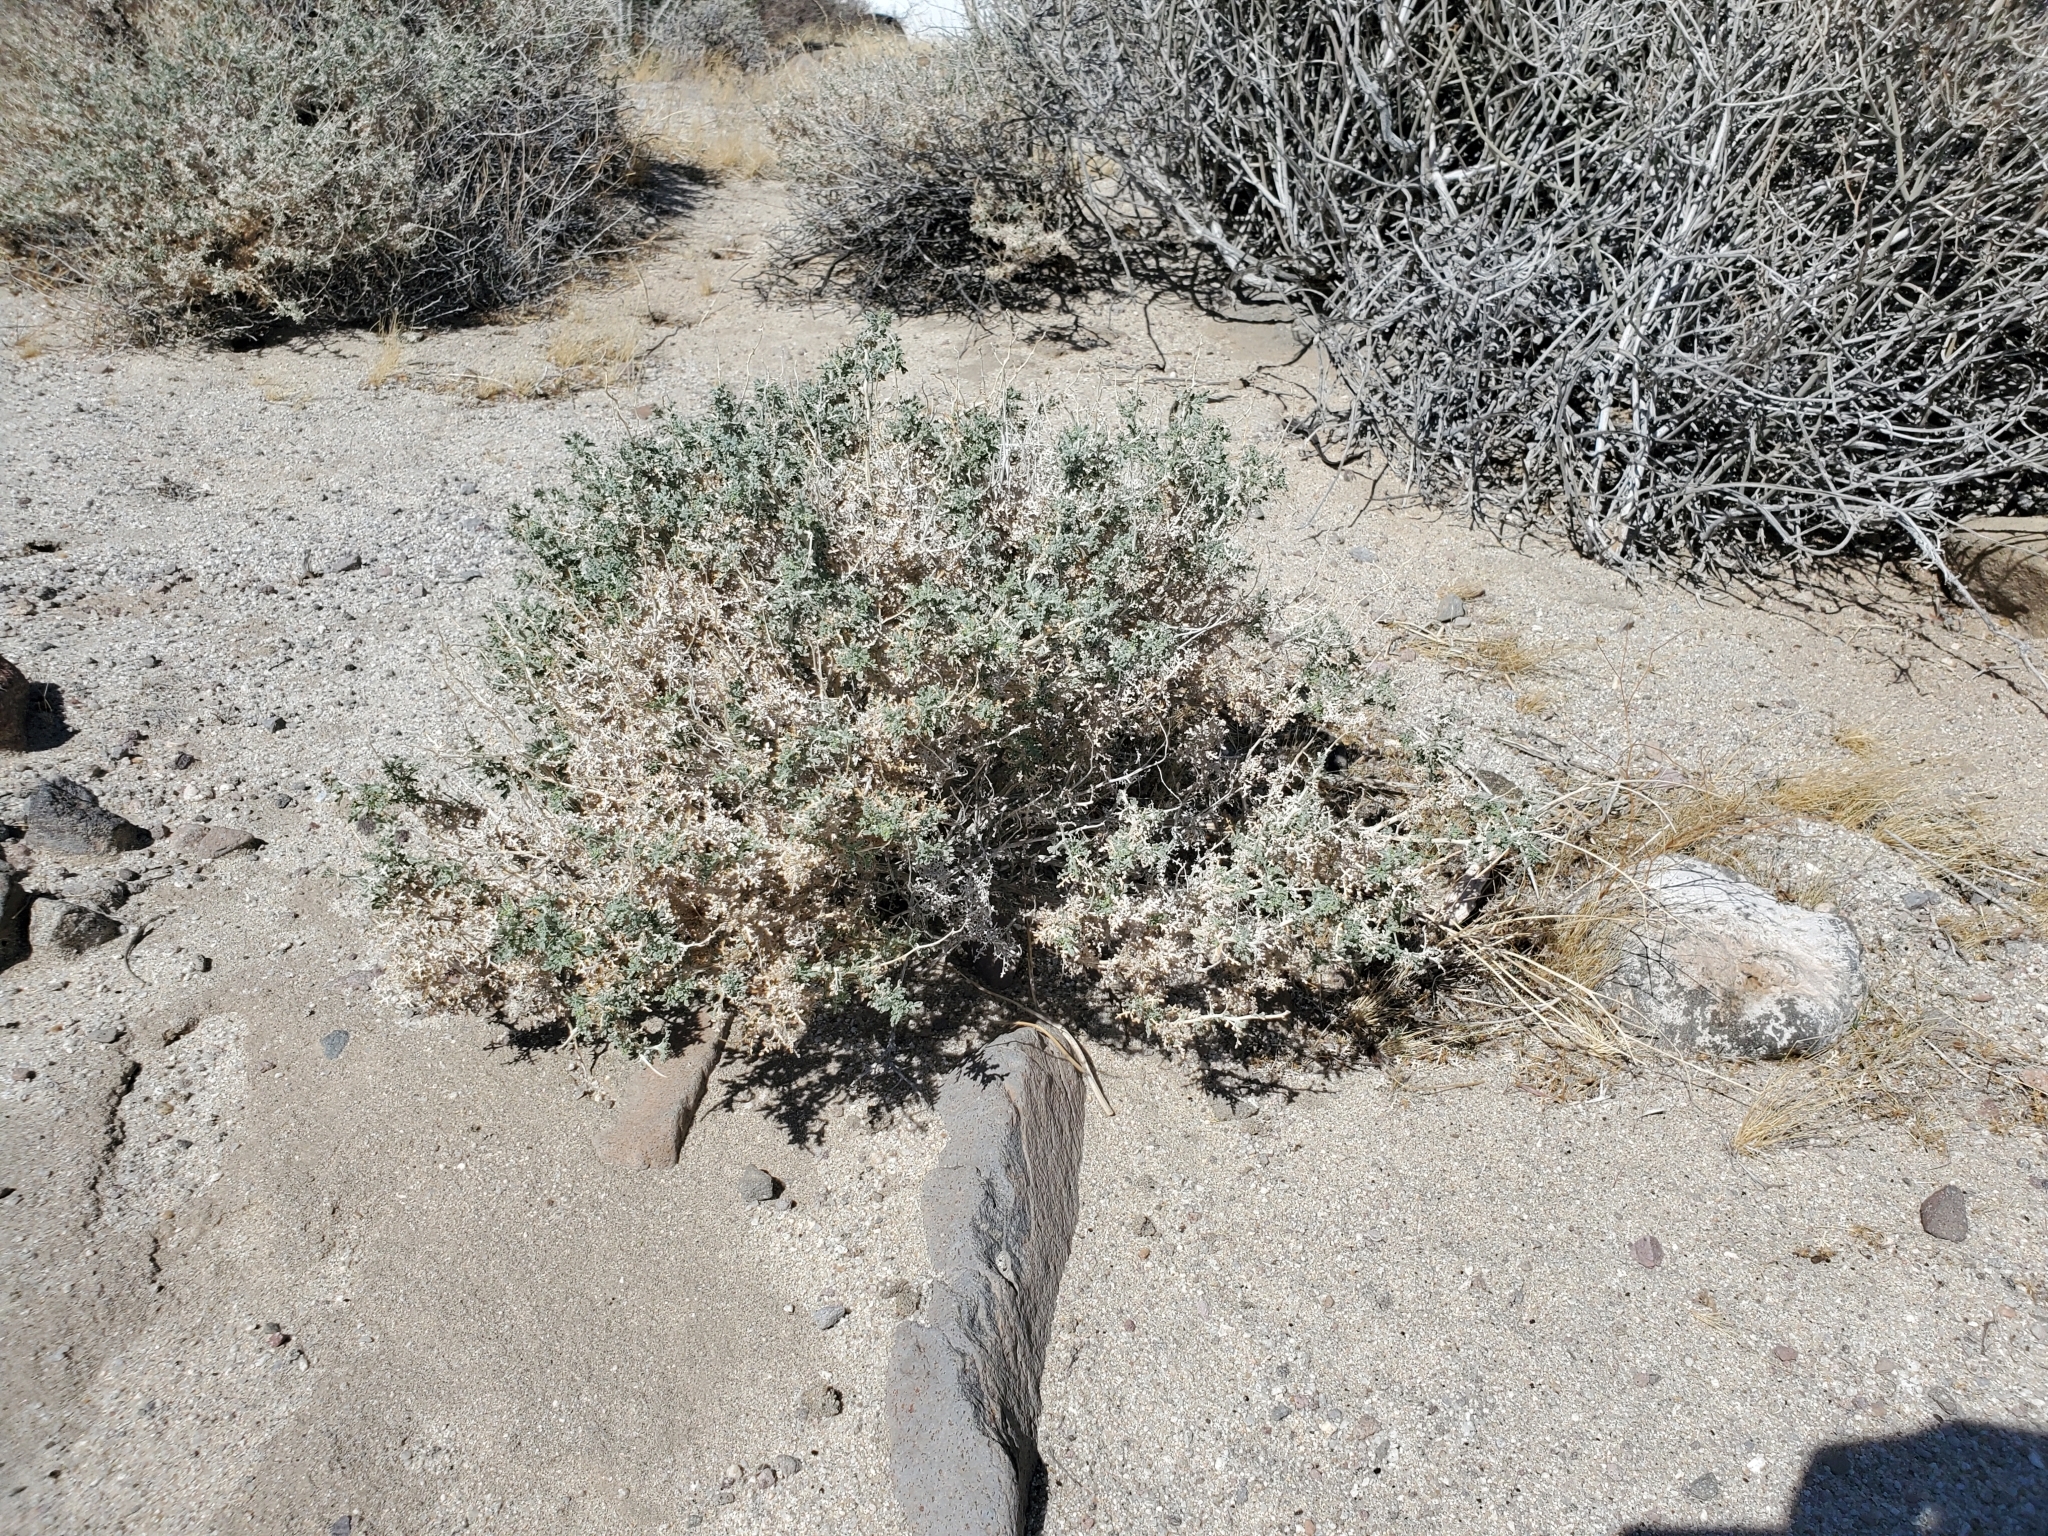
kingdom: Plantae
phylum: Tracheophyta
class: Magnoliopsida
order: Asterales
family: Asteraceae
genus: Ambrosia
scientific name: Ambrosia dumosa
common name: Bur-sage
